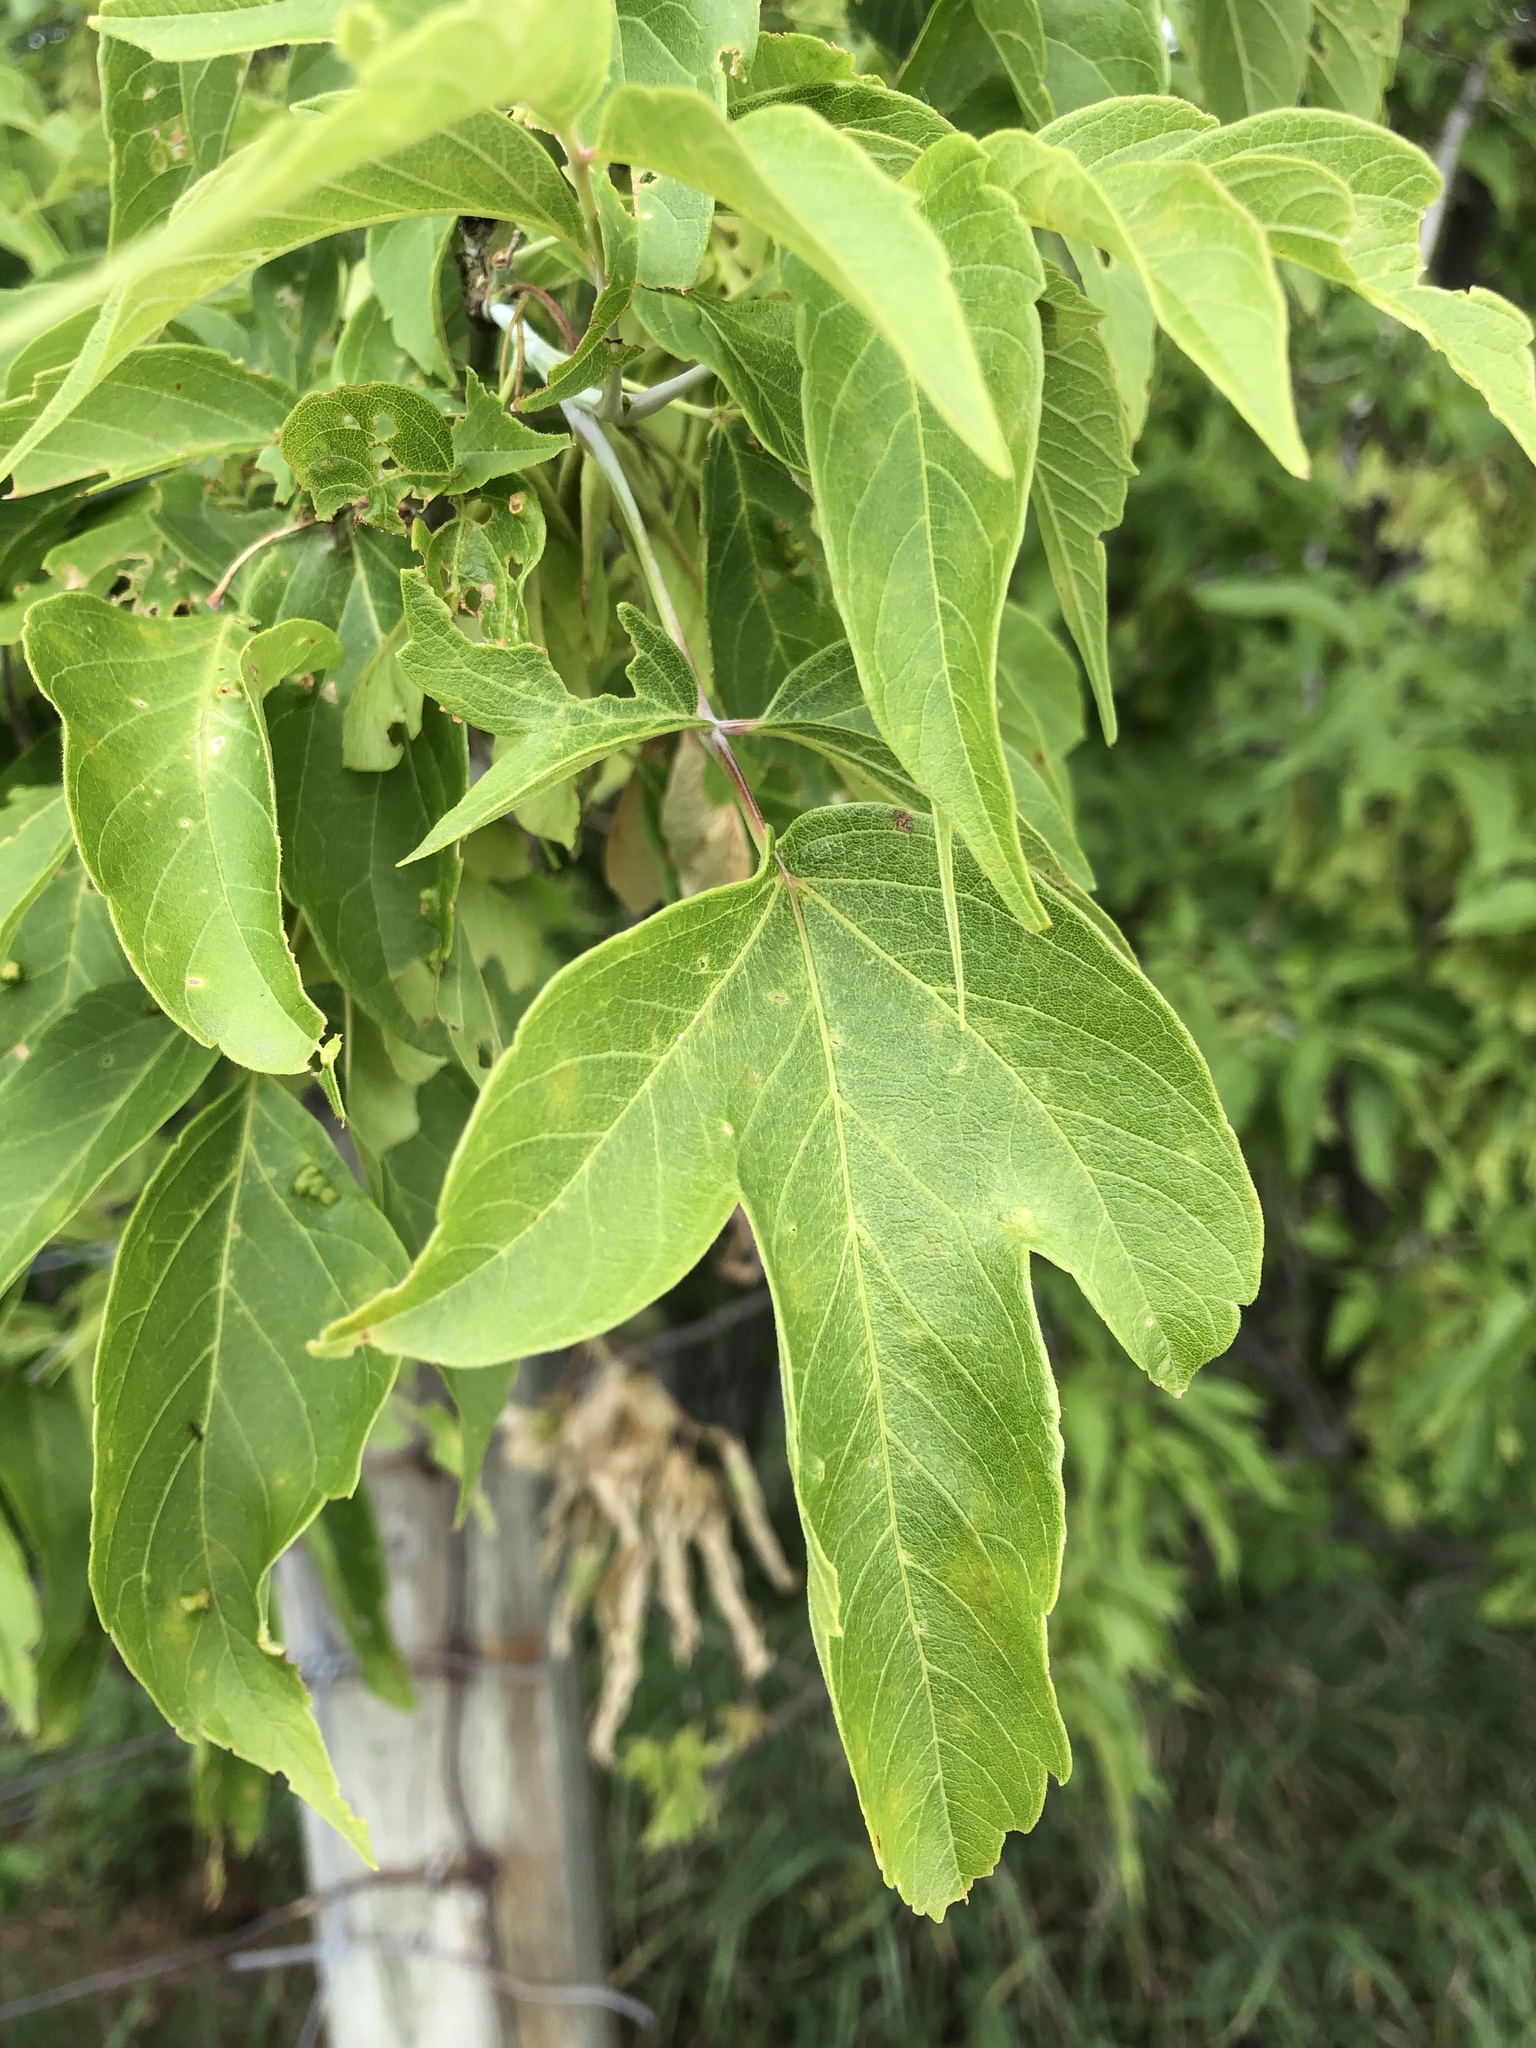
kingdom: Plantae
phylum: Tracheophyta
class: Magnoliopsida
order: Sapindales
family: Sapindaceae
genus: Acer
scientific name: Acer negundo
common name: Ashleaf maple
